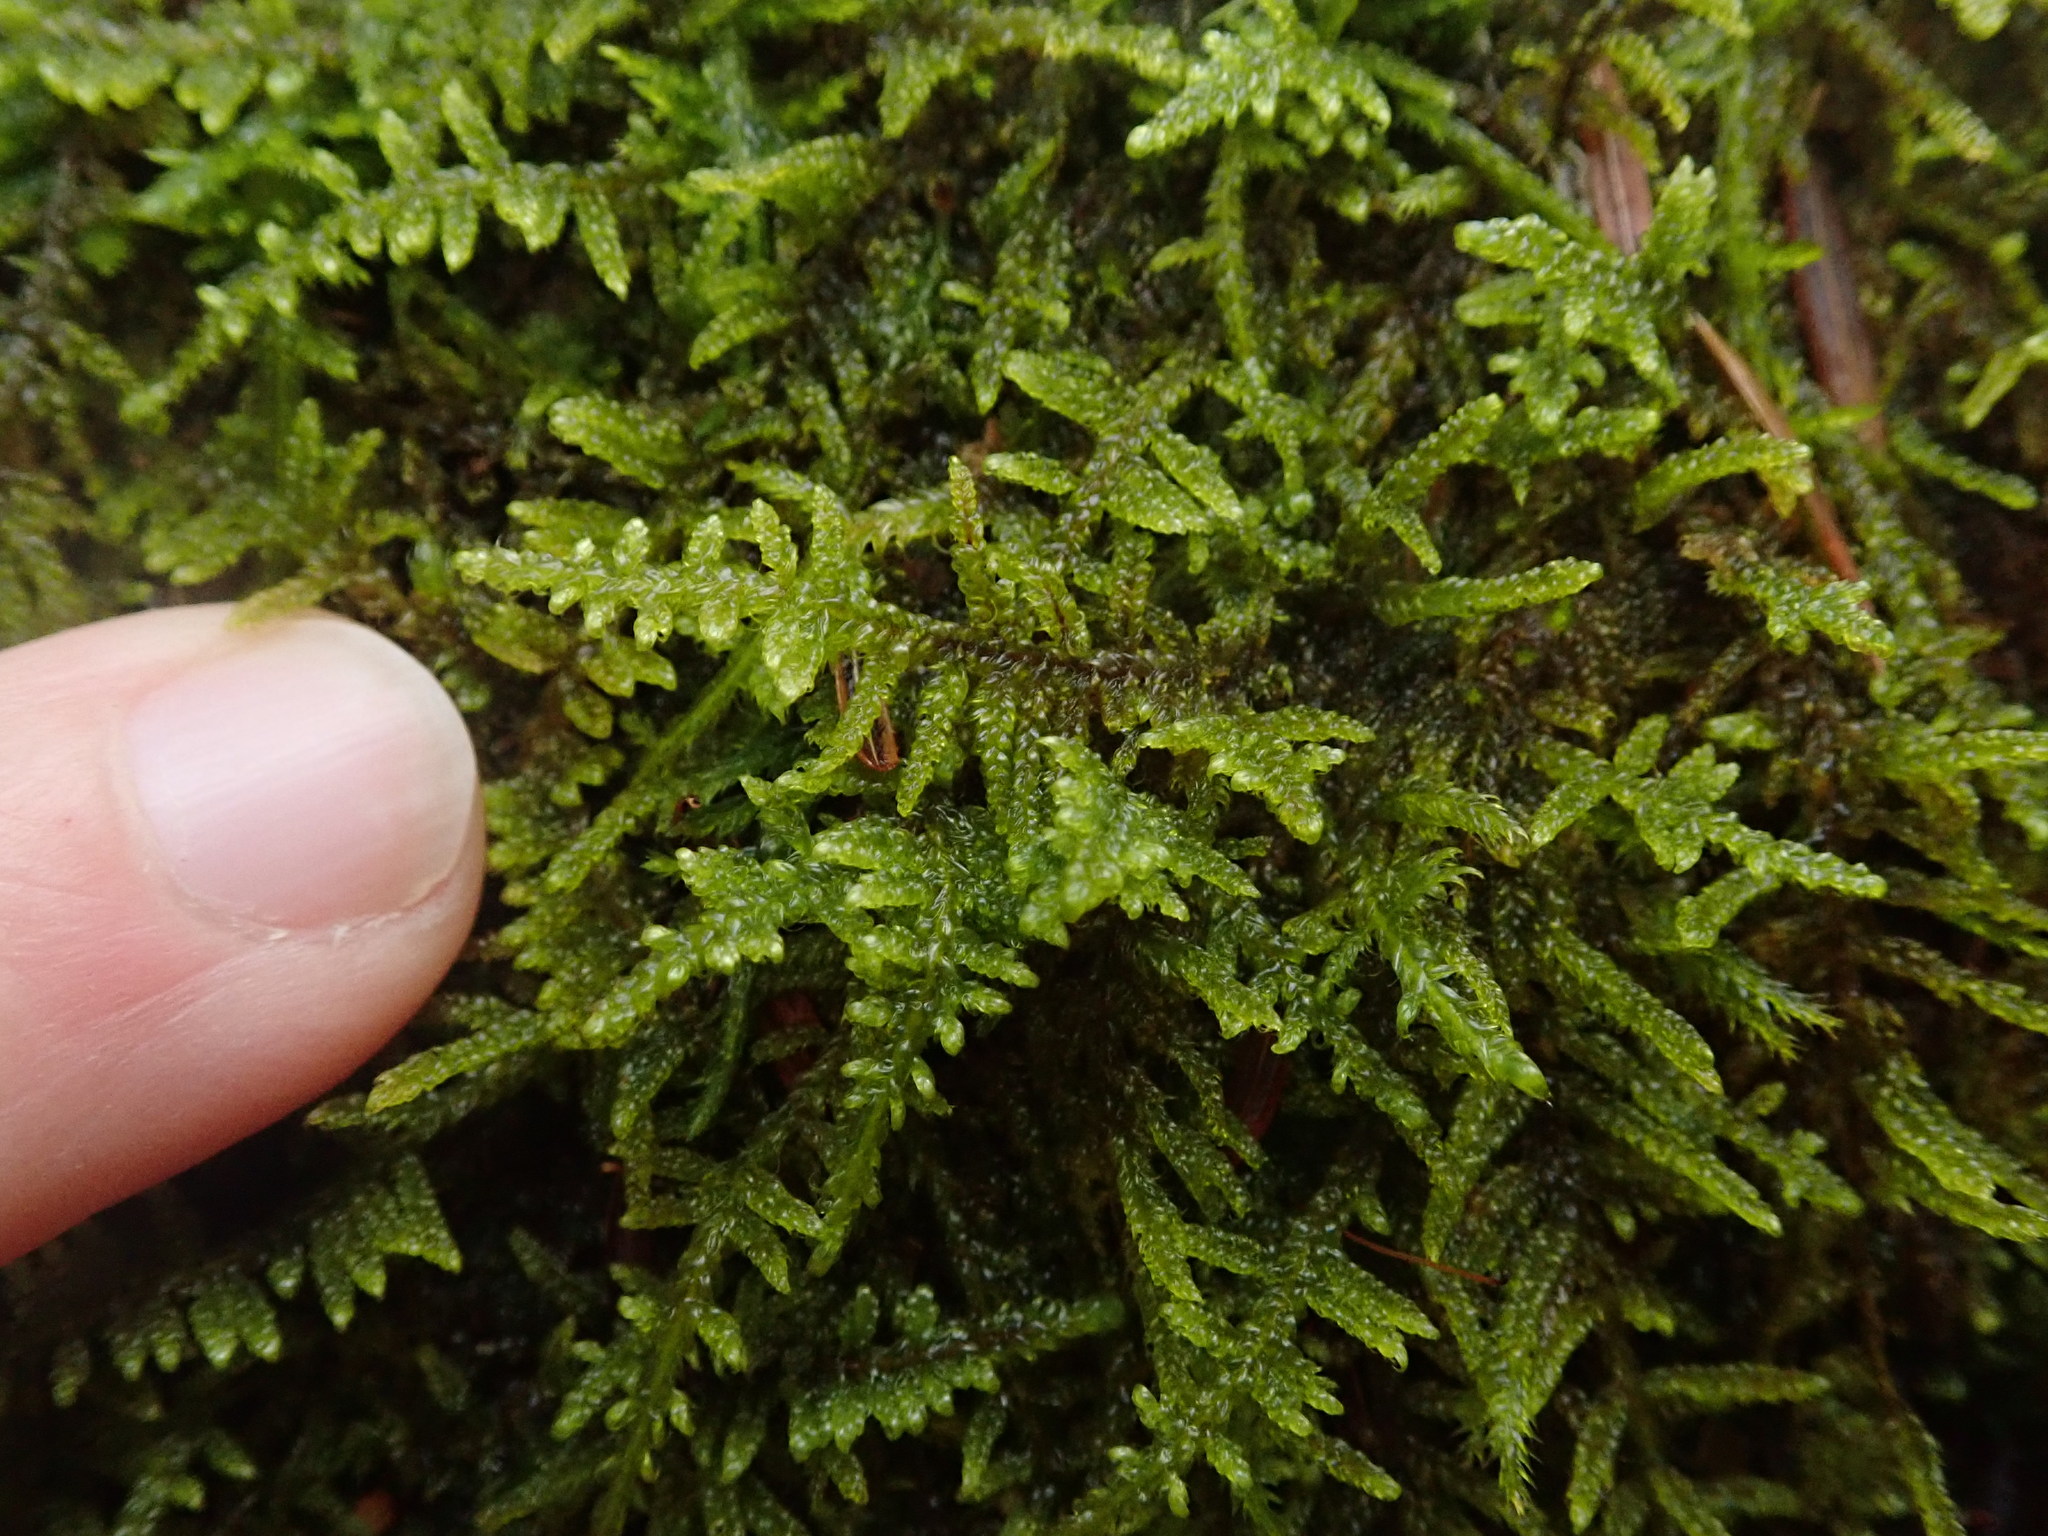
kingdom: Plantae
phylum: Bryophyta
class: Bryopsida
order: Hypnales
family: Callicladiaceae
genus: Callicladium
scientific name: Callicladium imponens
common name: Brocade moss
